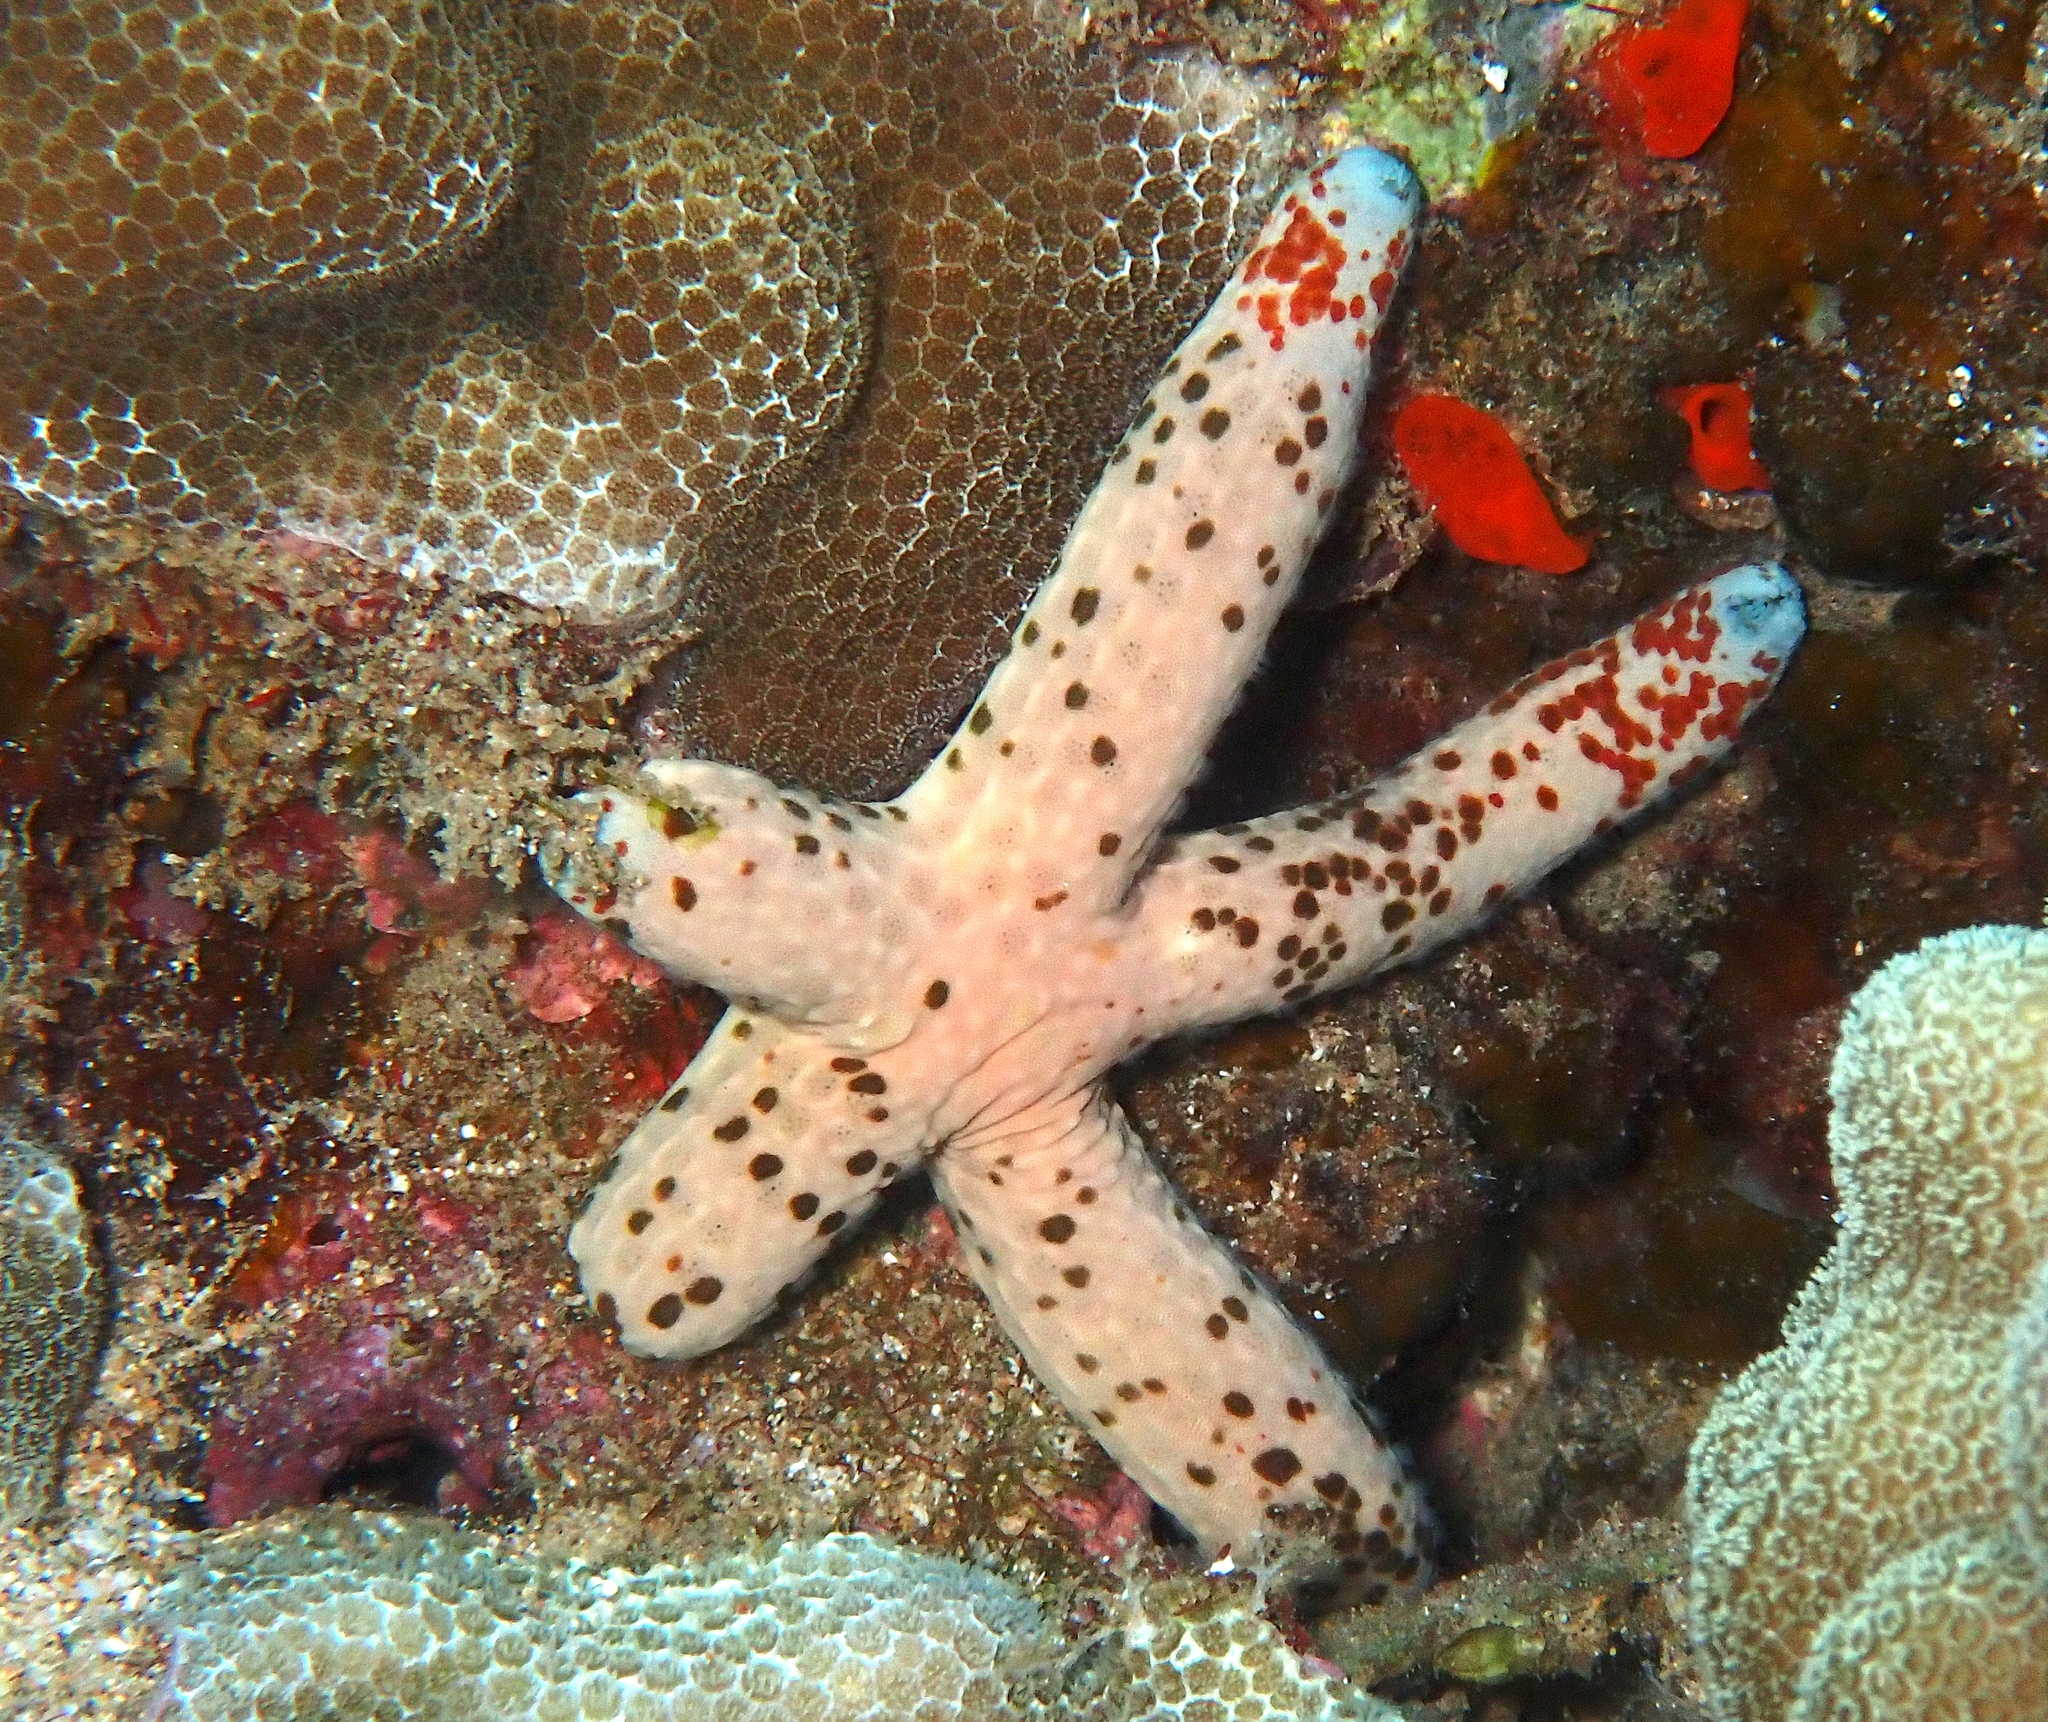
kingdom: Animalia
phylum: Echinodermata
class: Asteroidea
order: Valvatida
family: Ophidiasteridae
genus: Linckia
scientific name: Linckia multifora
